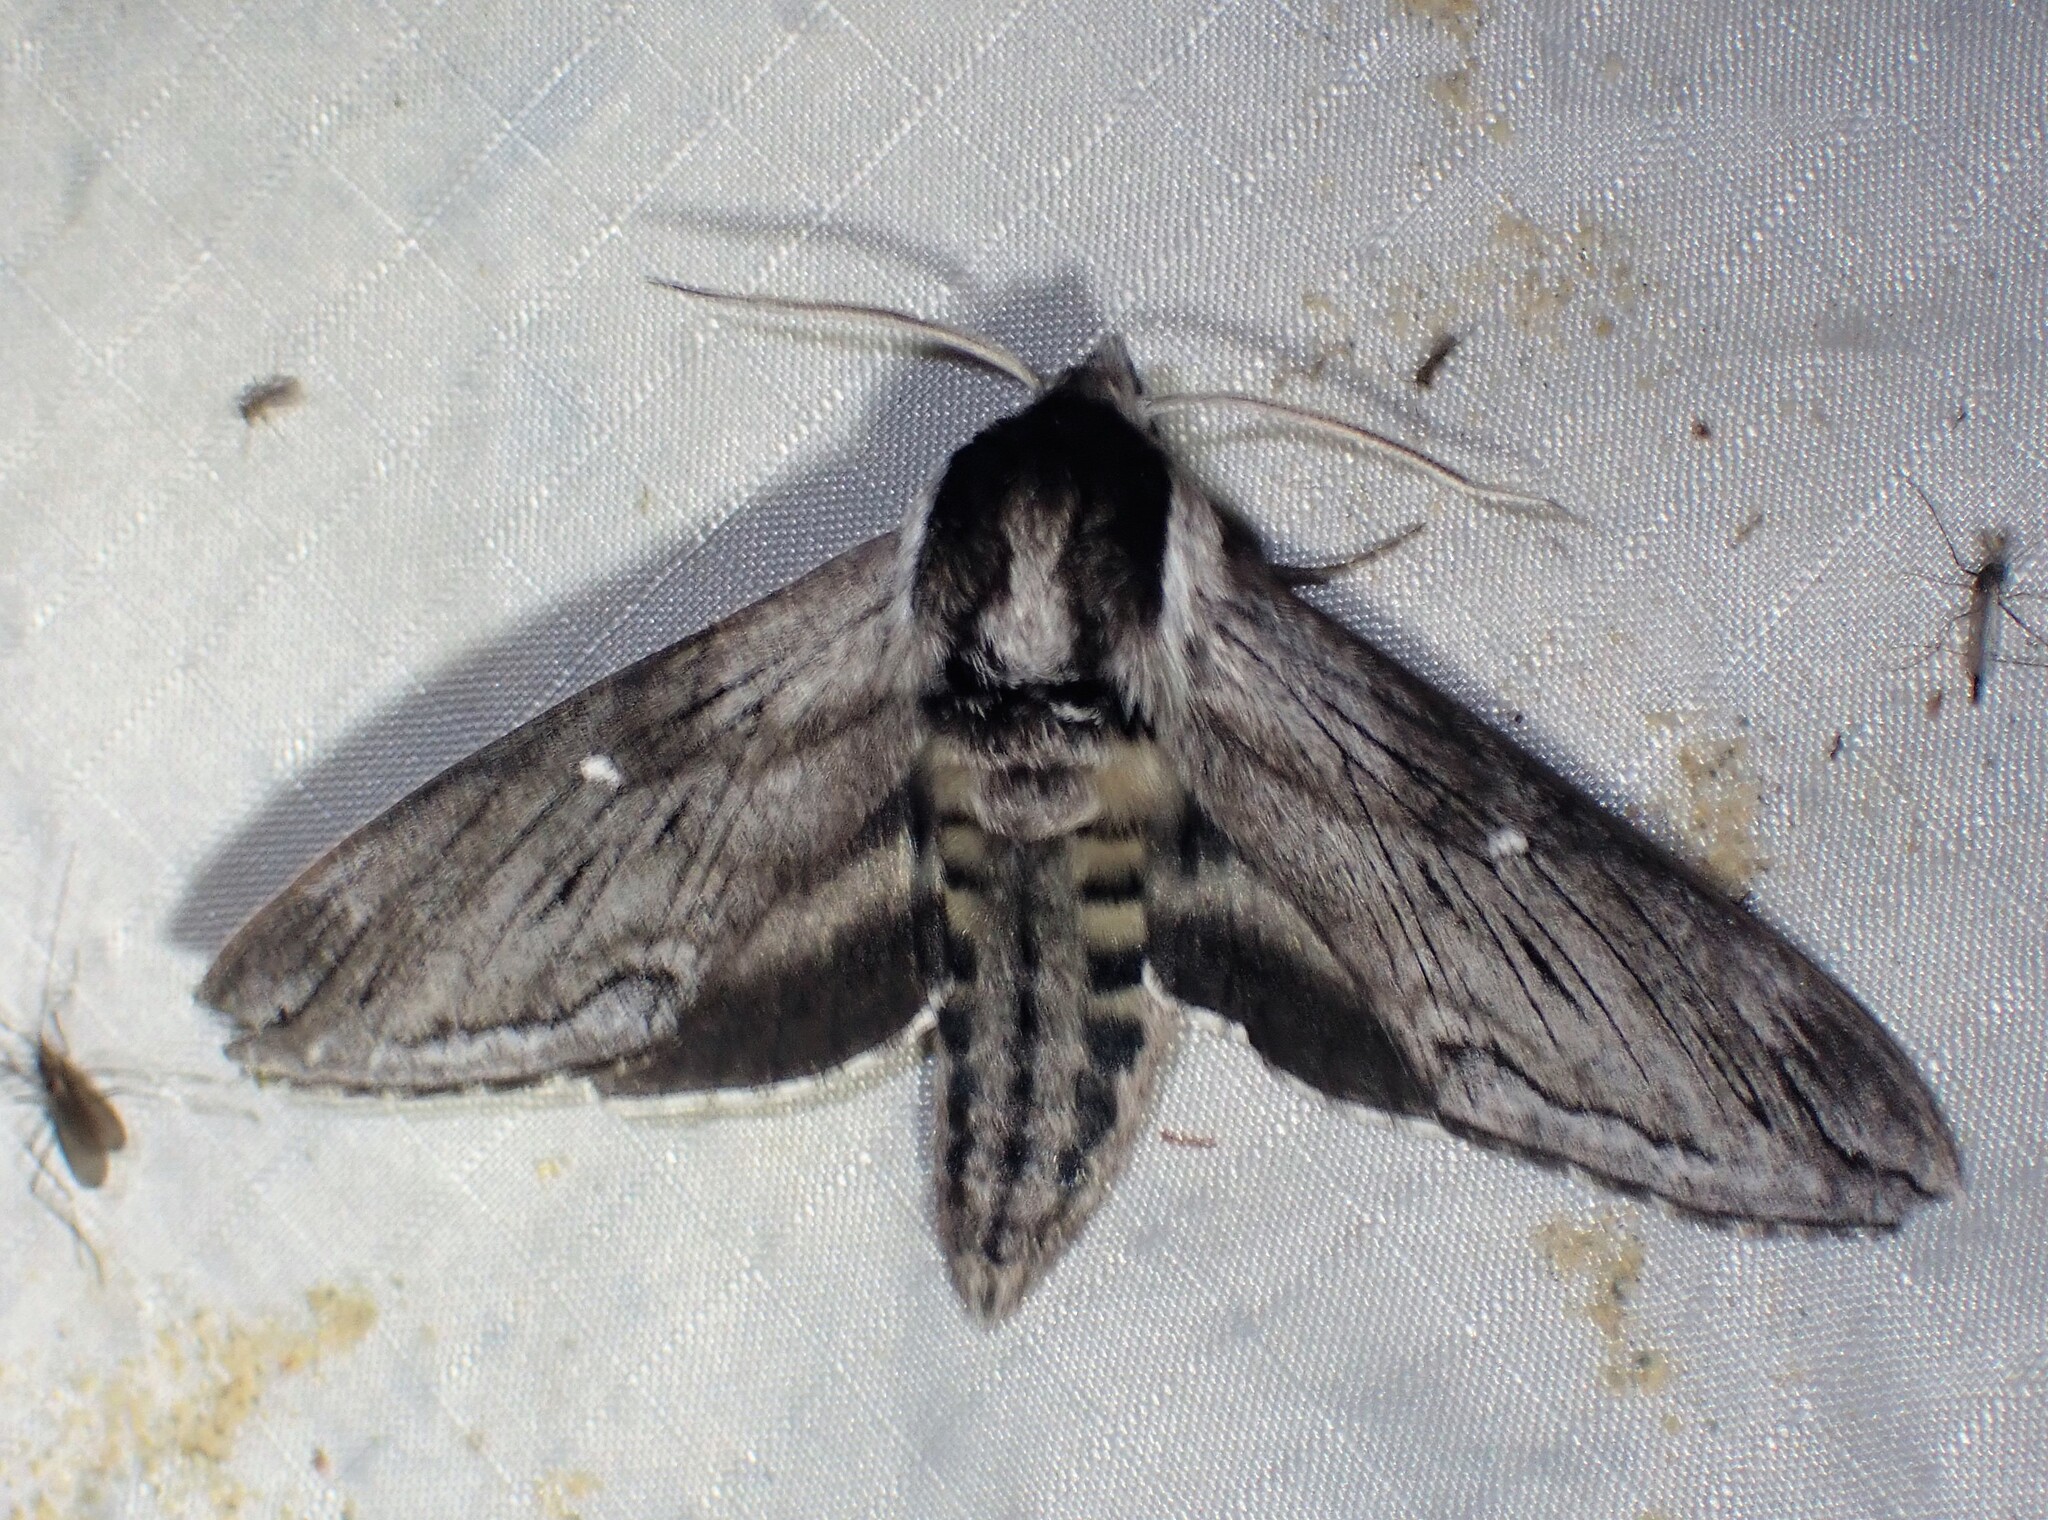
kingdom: Animalia
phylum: Arthropoda
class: Insecta
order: Lepidoptera
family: Sphingidae
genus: Sphinx
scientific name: Sphinx poecila
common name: Northern apple sphinx
